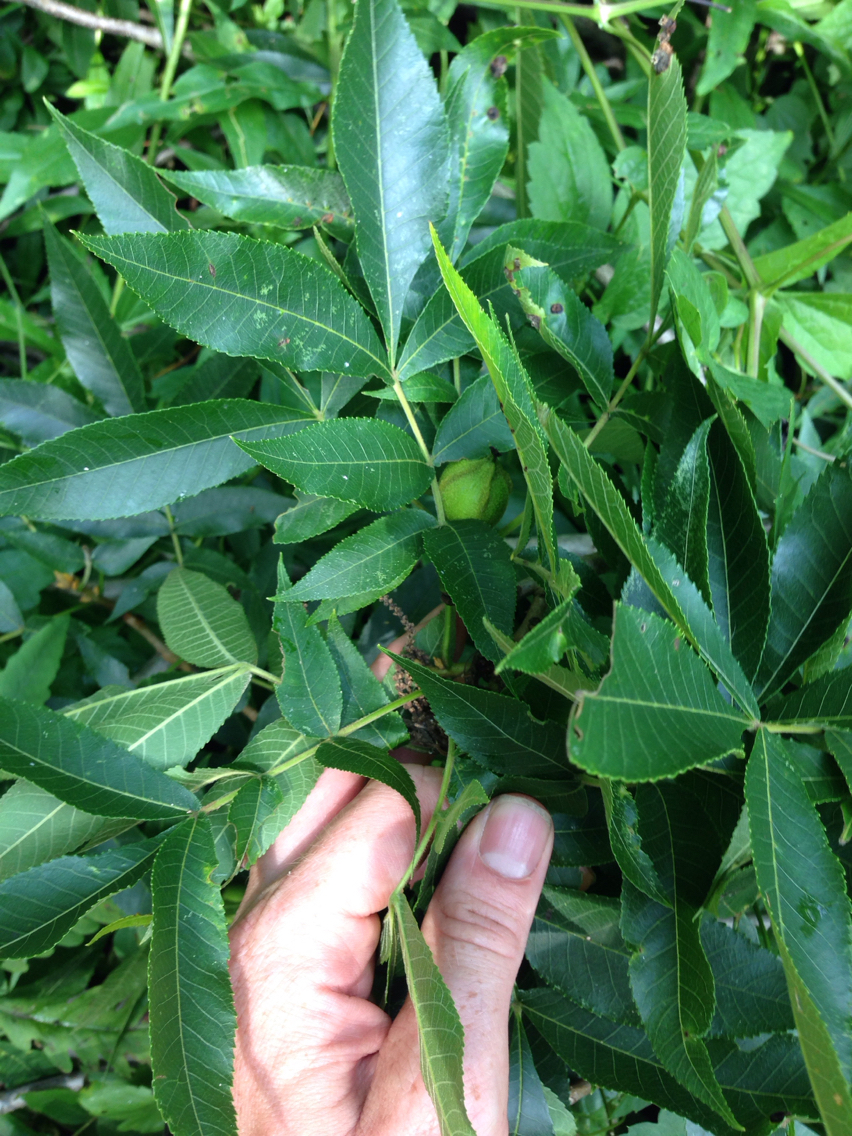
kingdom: Plantae
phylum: Tracheophyta
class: Magnoliopsida
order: Fagales
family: Juglandaceae
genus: Carya
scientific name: Carya cordiformis
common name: Bitternut hickory
